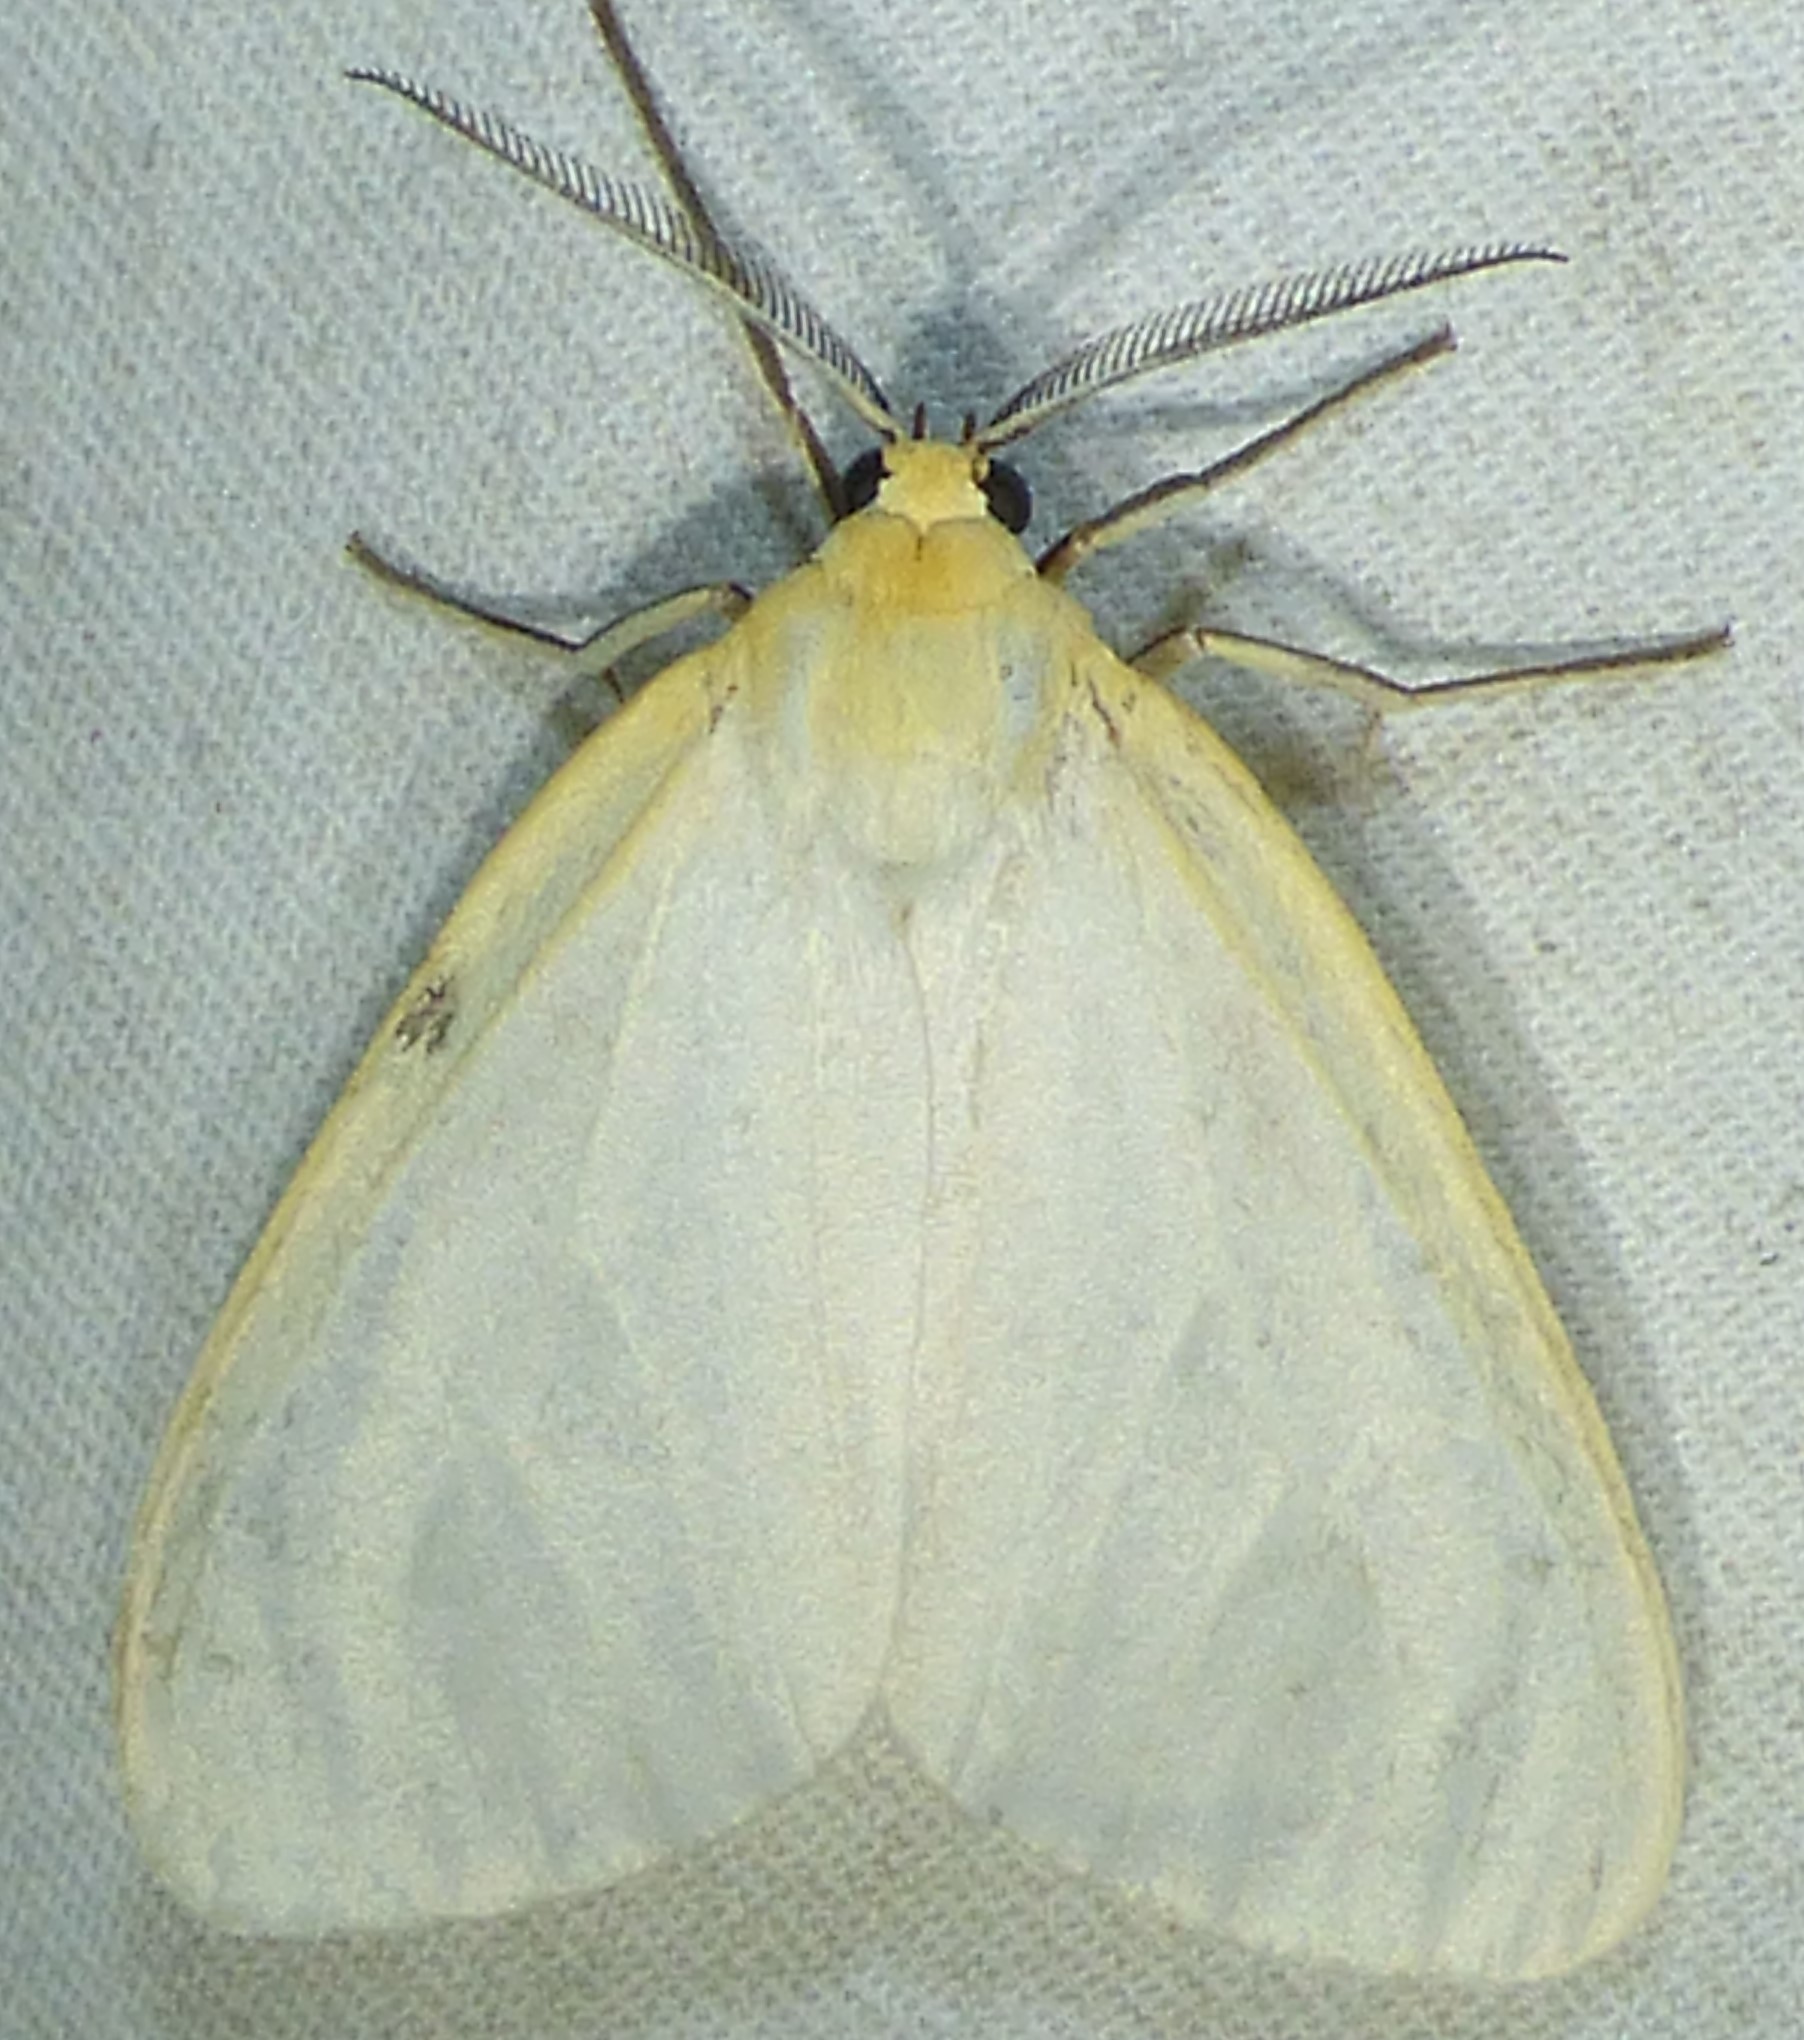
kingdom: Animalia
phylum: Arthropoda
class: Insecta
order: Lepidoptera
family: Erebidae
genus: Cycnia
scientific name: Cycnia tenera
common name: Delicate cycnia moth
